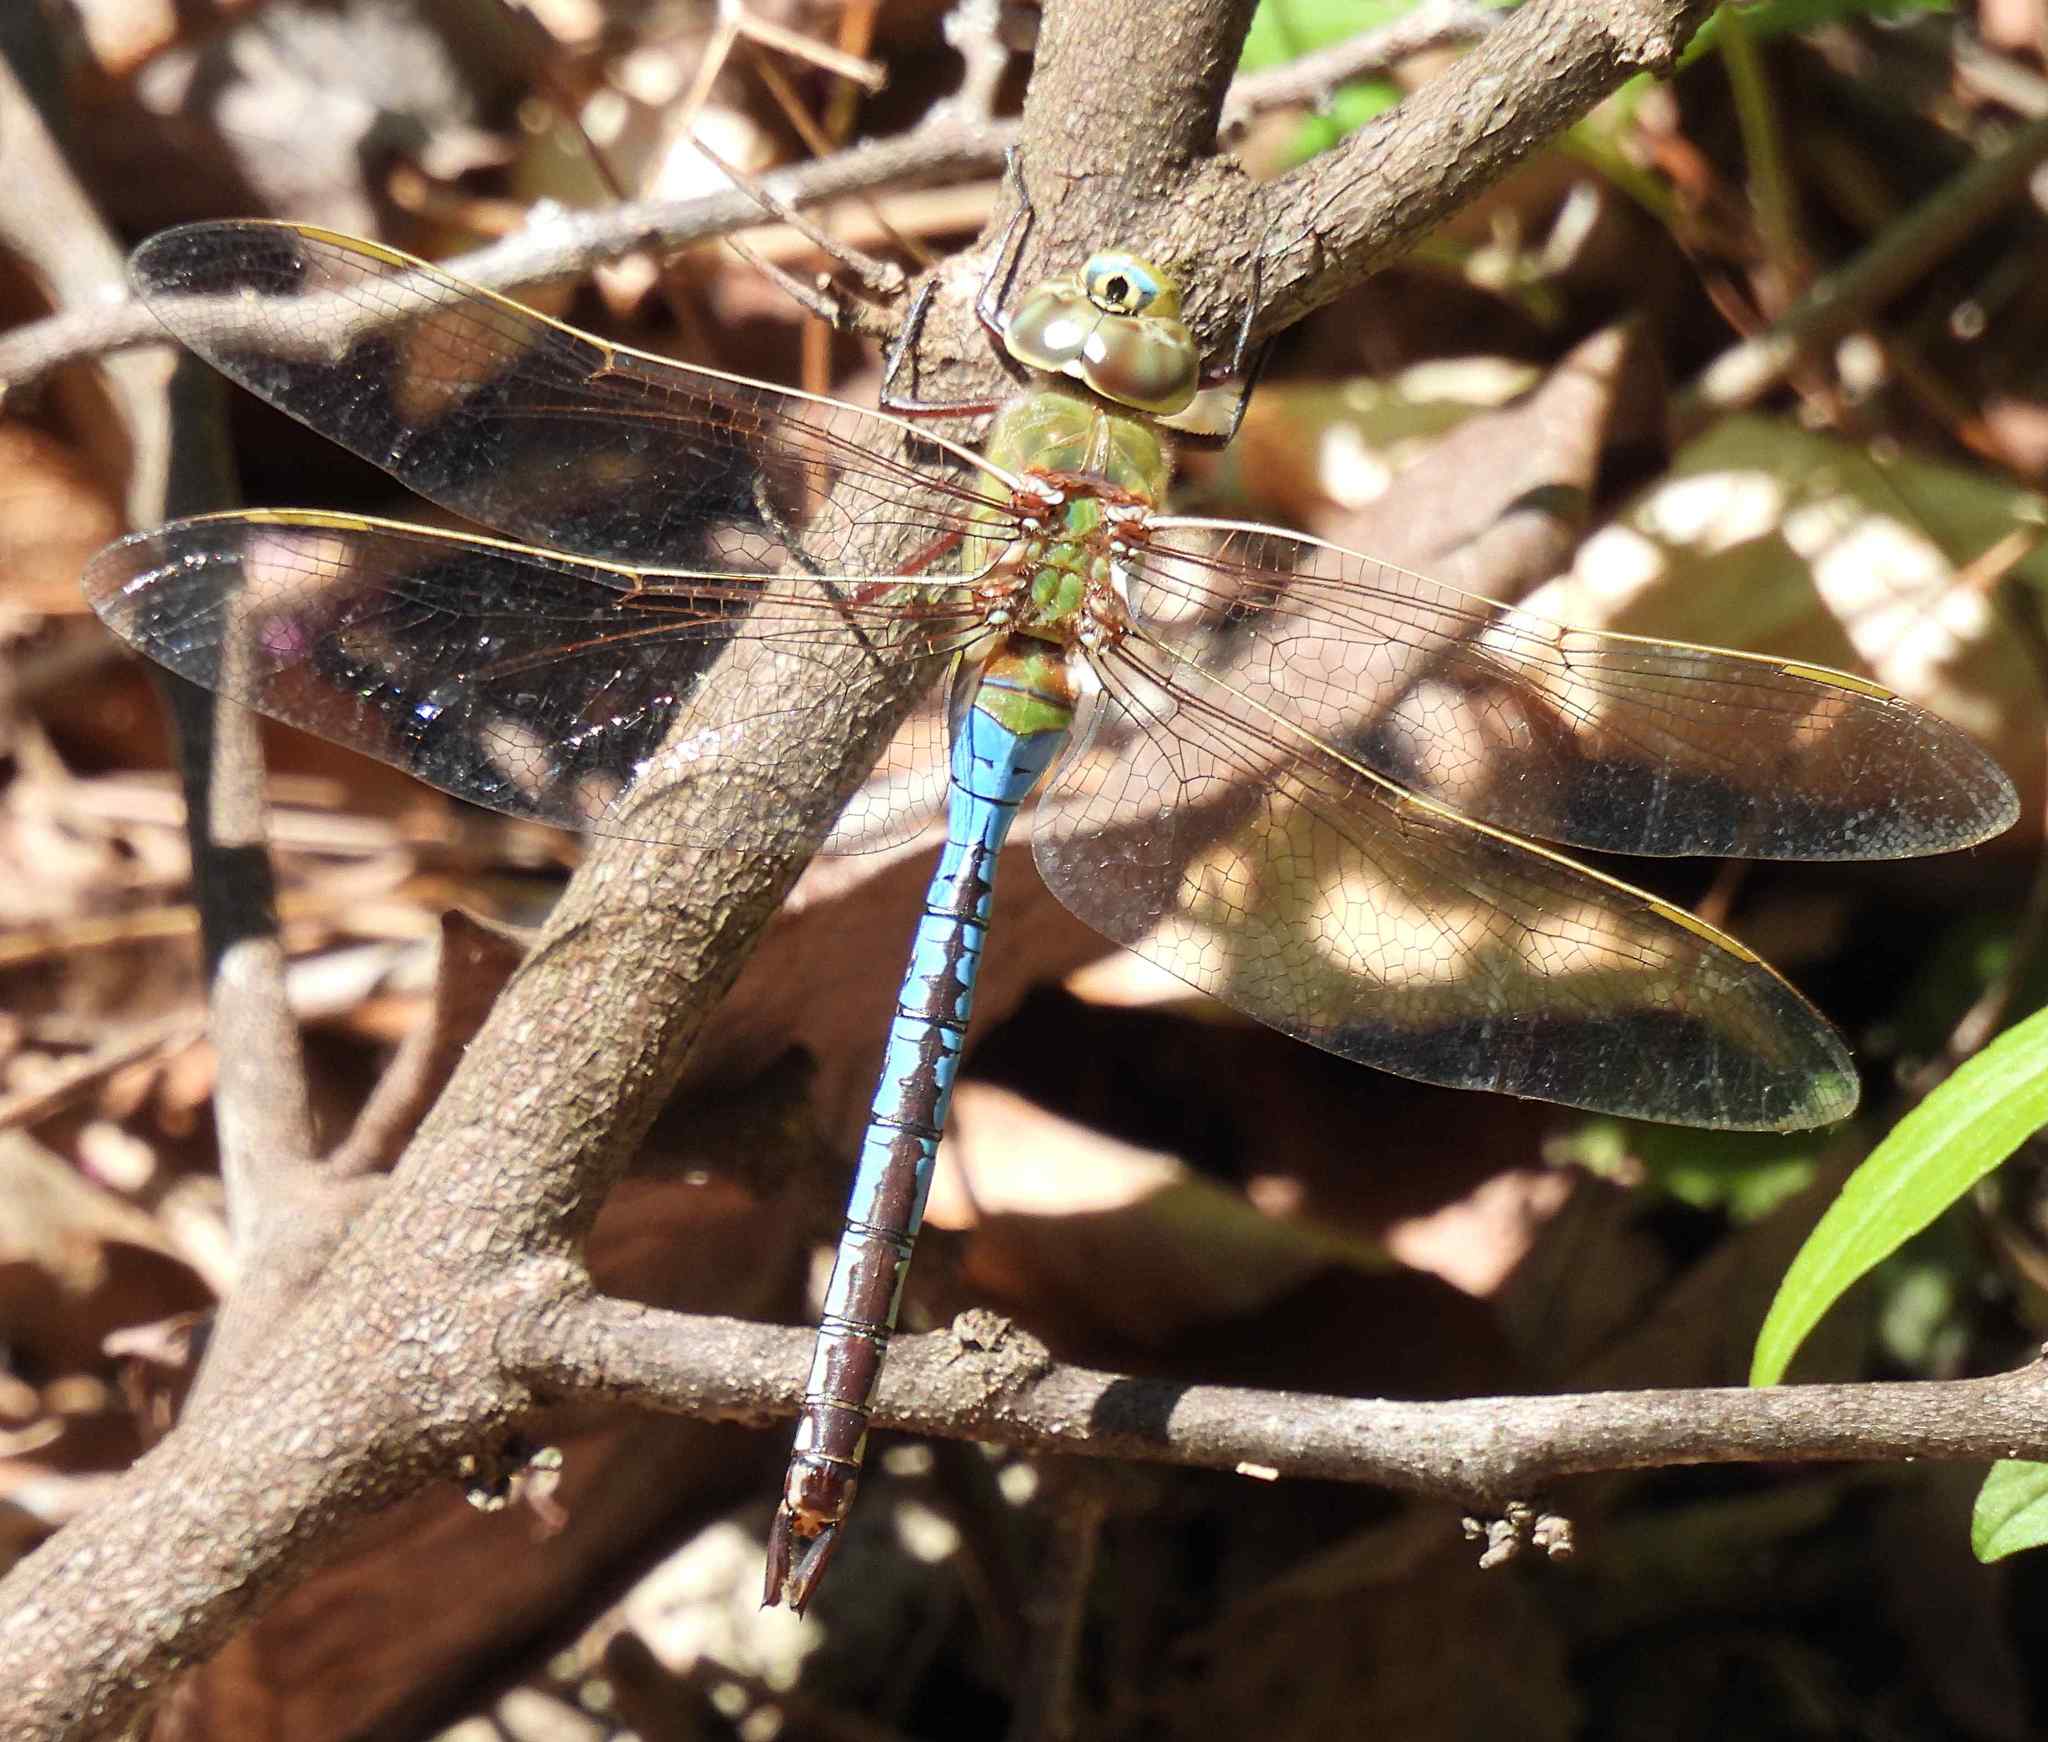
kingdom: Animalia
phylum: Arthropoda
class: Insecta
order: Odonata
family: Aeshnidae
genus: Anax
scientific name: Anax junius
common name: Common green darner
